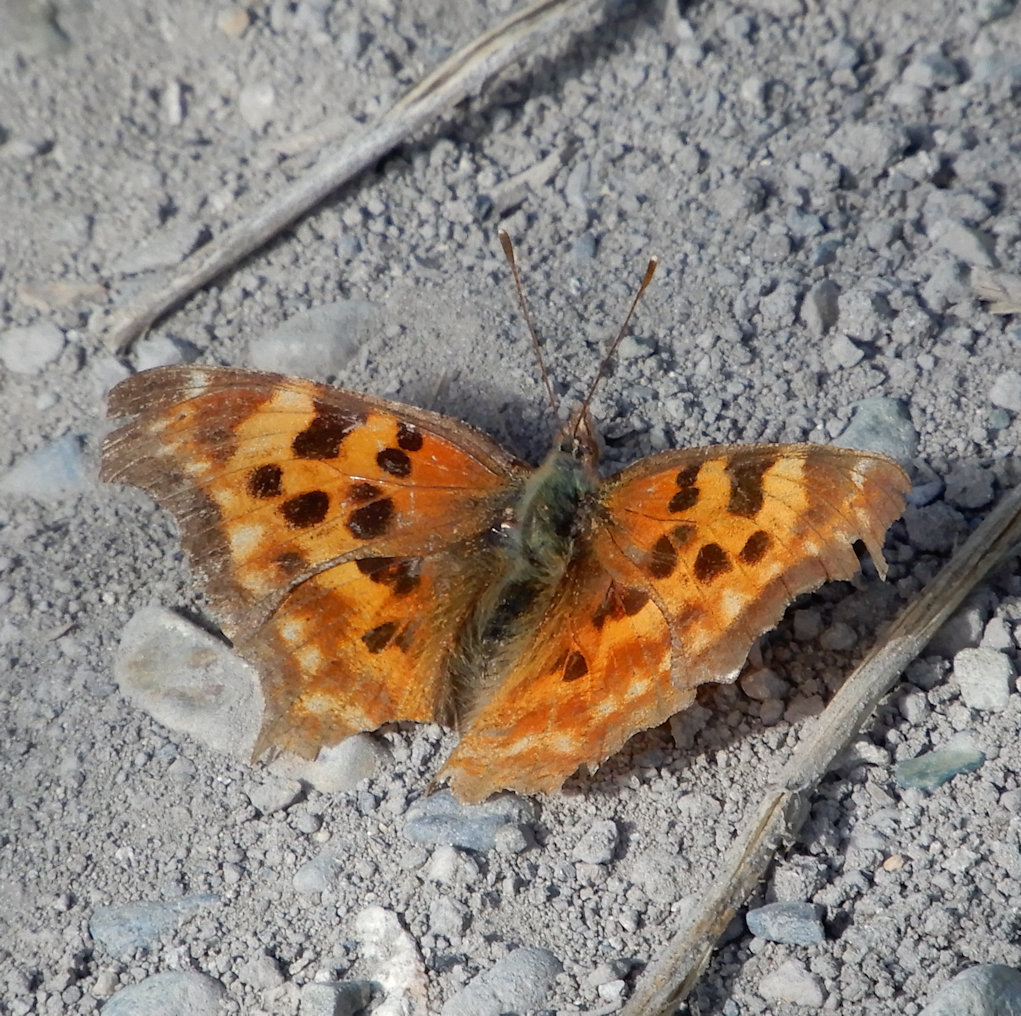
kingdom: Animalia
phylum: Arthropoda
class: Insecta
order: Lepidoptera
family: Nymphalidae
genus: Polygonia
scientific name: Polygonia gracilis
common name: Hoary comma
